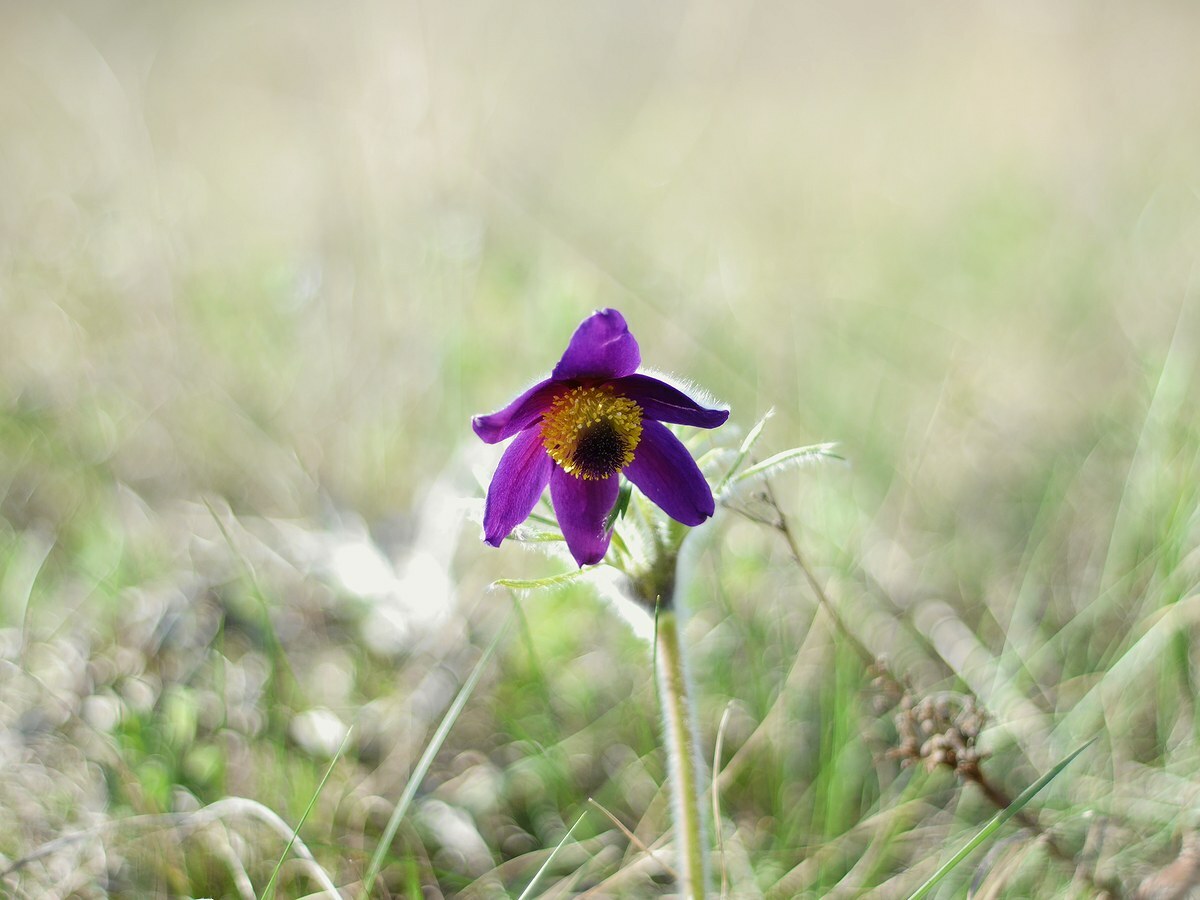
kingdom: Plantae
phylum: Tracheophyta
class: Magnoliopsida
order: Ranunculales
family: Ranunculaceae
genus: Pulsatilla
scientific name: Pulsatilla pratensis
